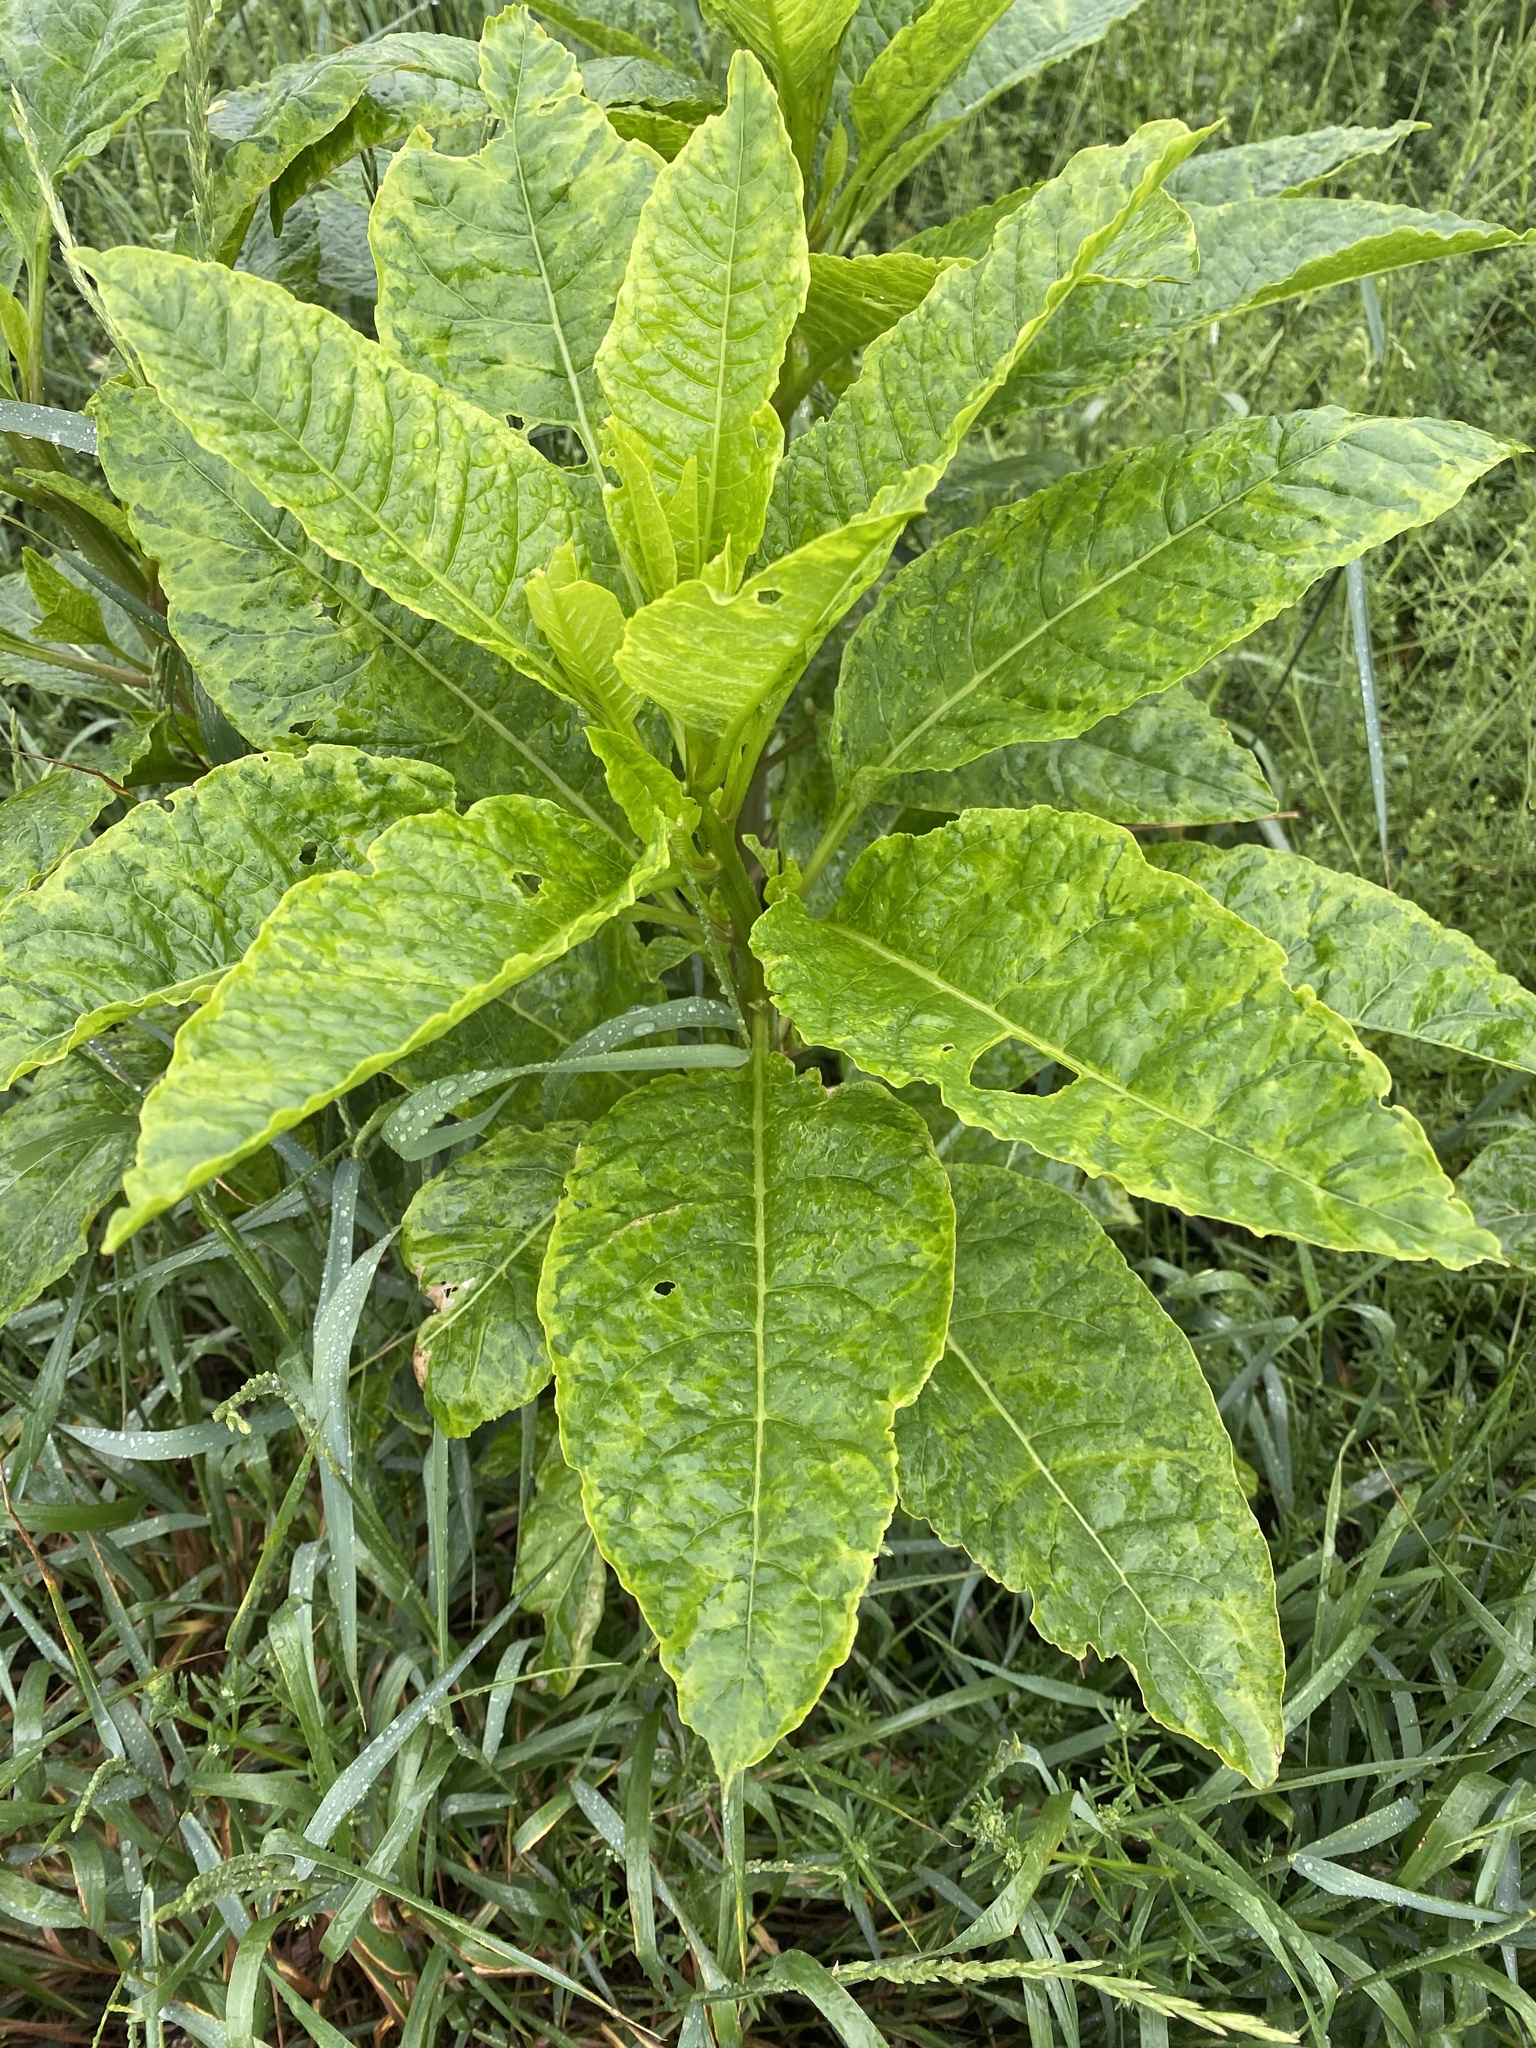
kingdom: Viruses
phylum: Pisuviricota
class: Stelpaviricetes
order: Patatavirales
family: Potyviridae
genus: Potyvirus
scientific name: Potyvirus Pokeweed mosaic virus
